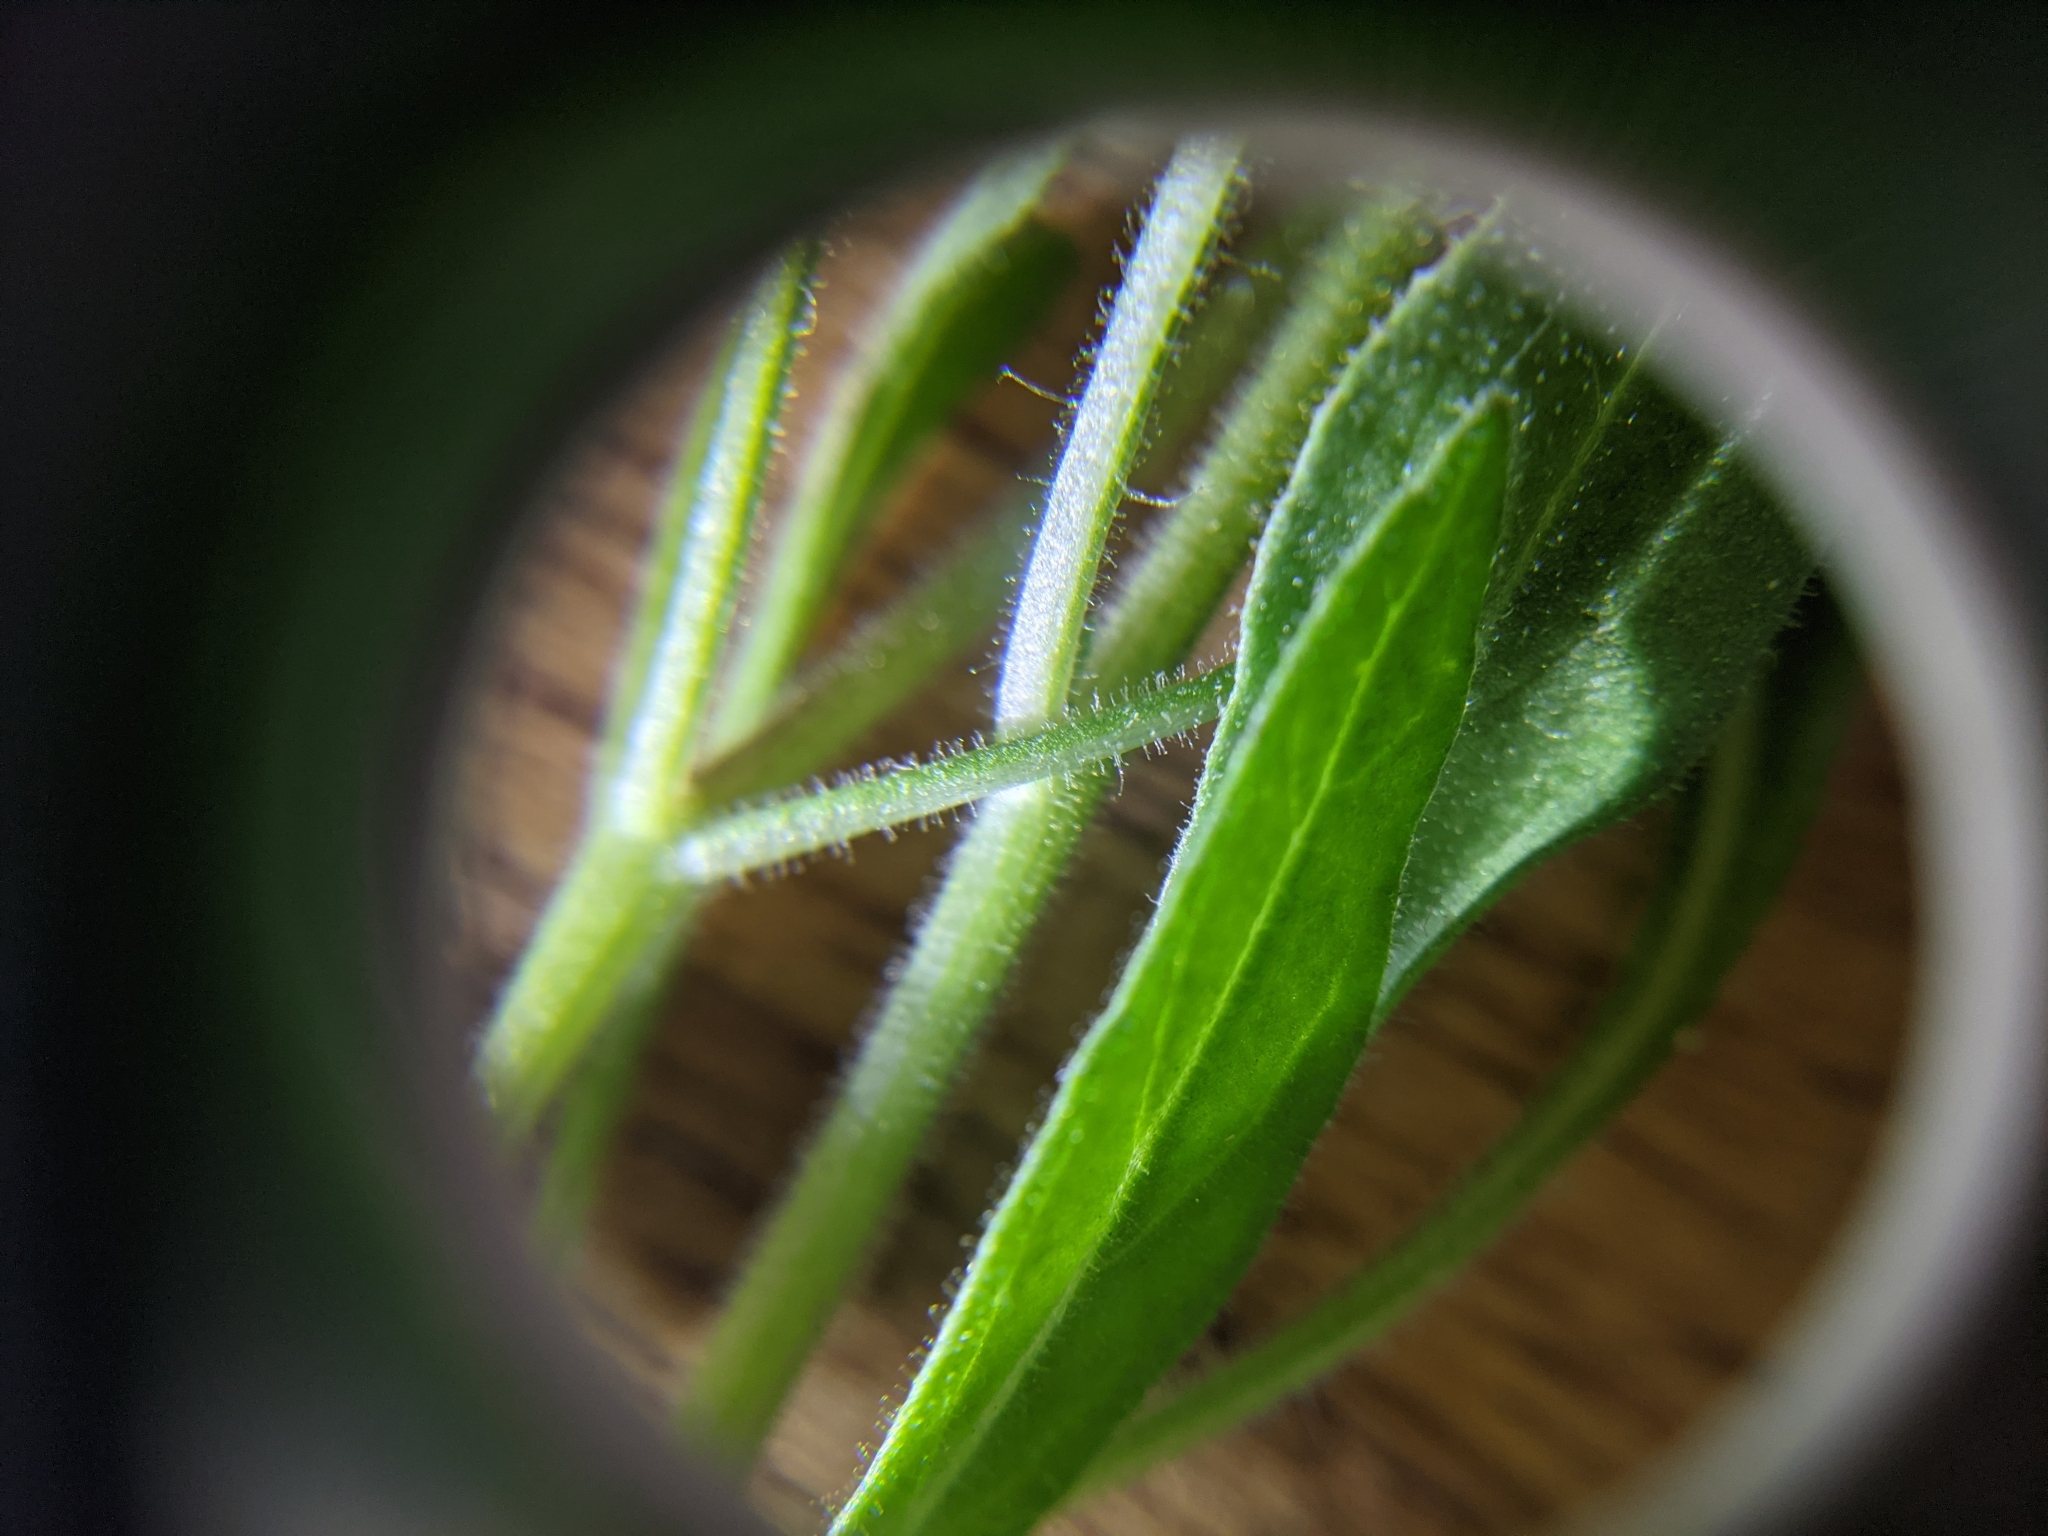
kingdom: Plantae
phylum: Tracheophyta
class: Magnoliopsida
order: Solanales
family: Solanaceae
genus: Chamaesaracha
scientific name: Chamaesaracha edwardsiana
